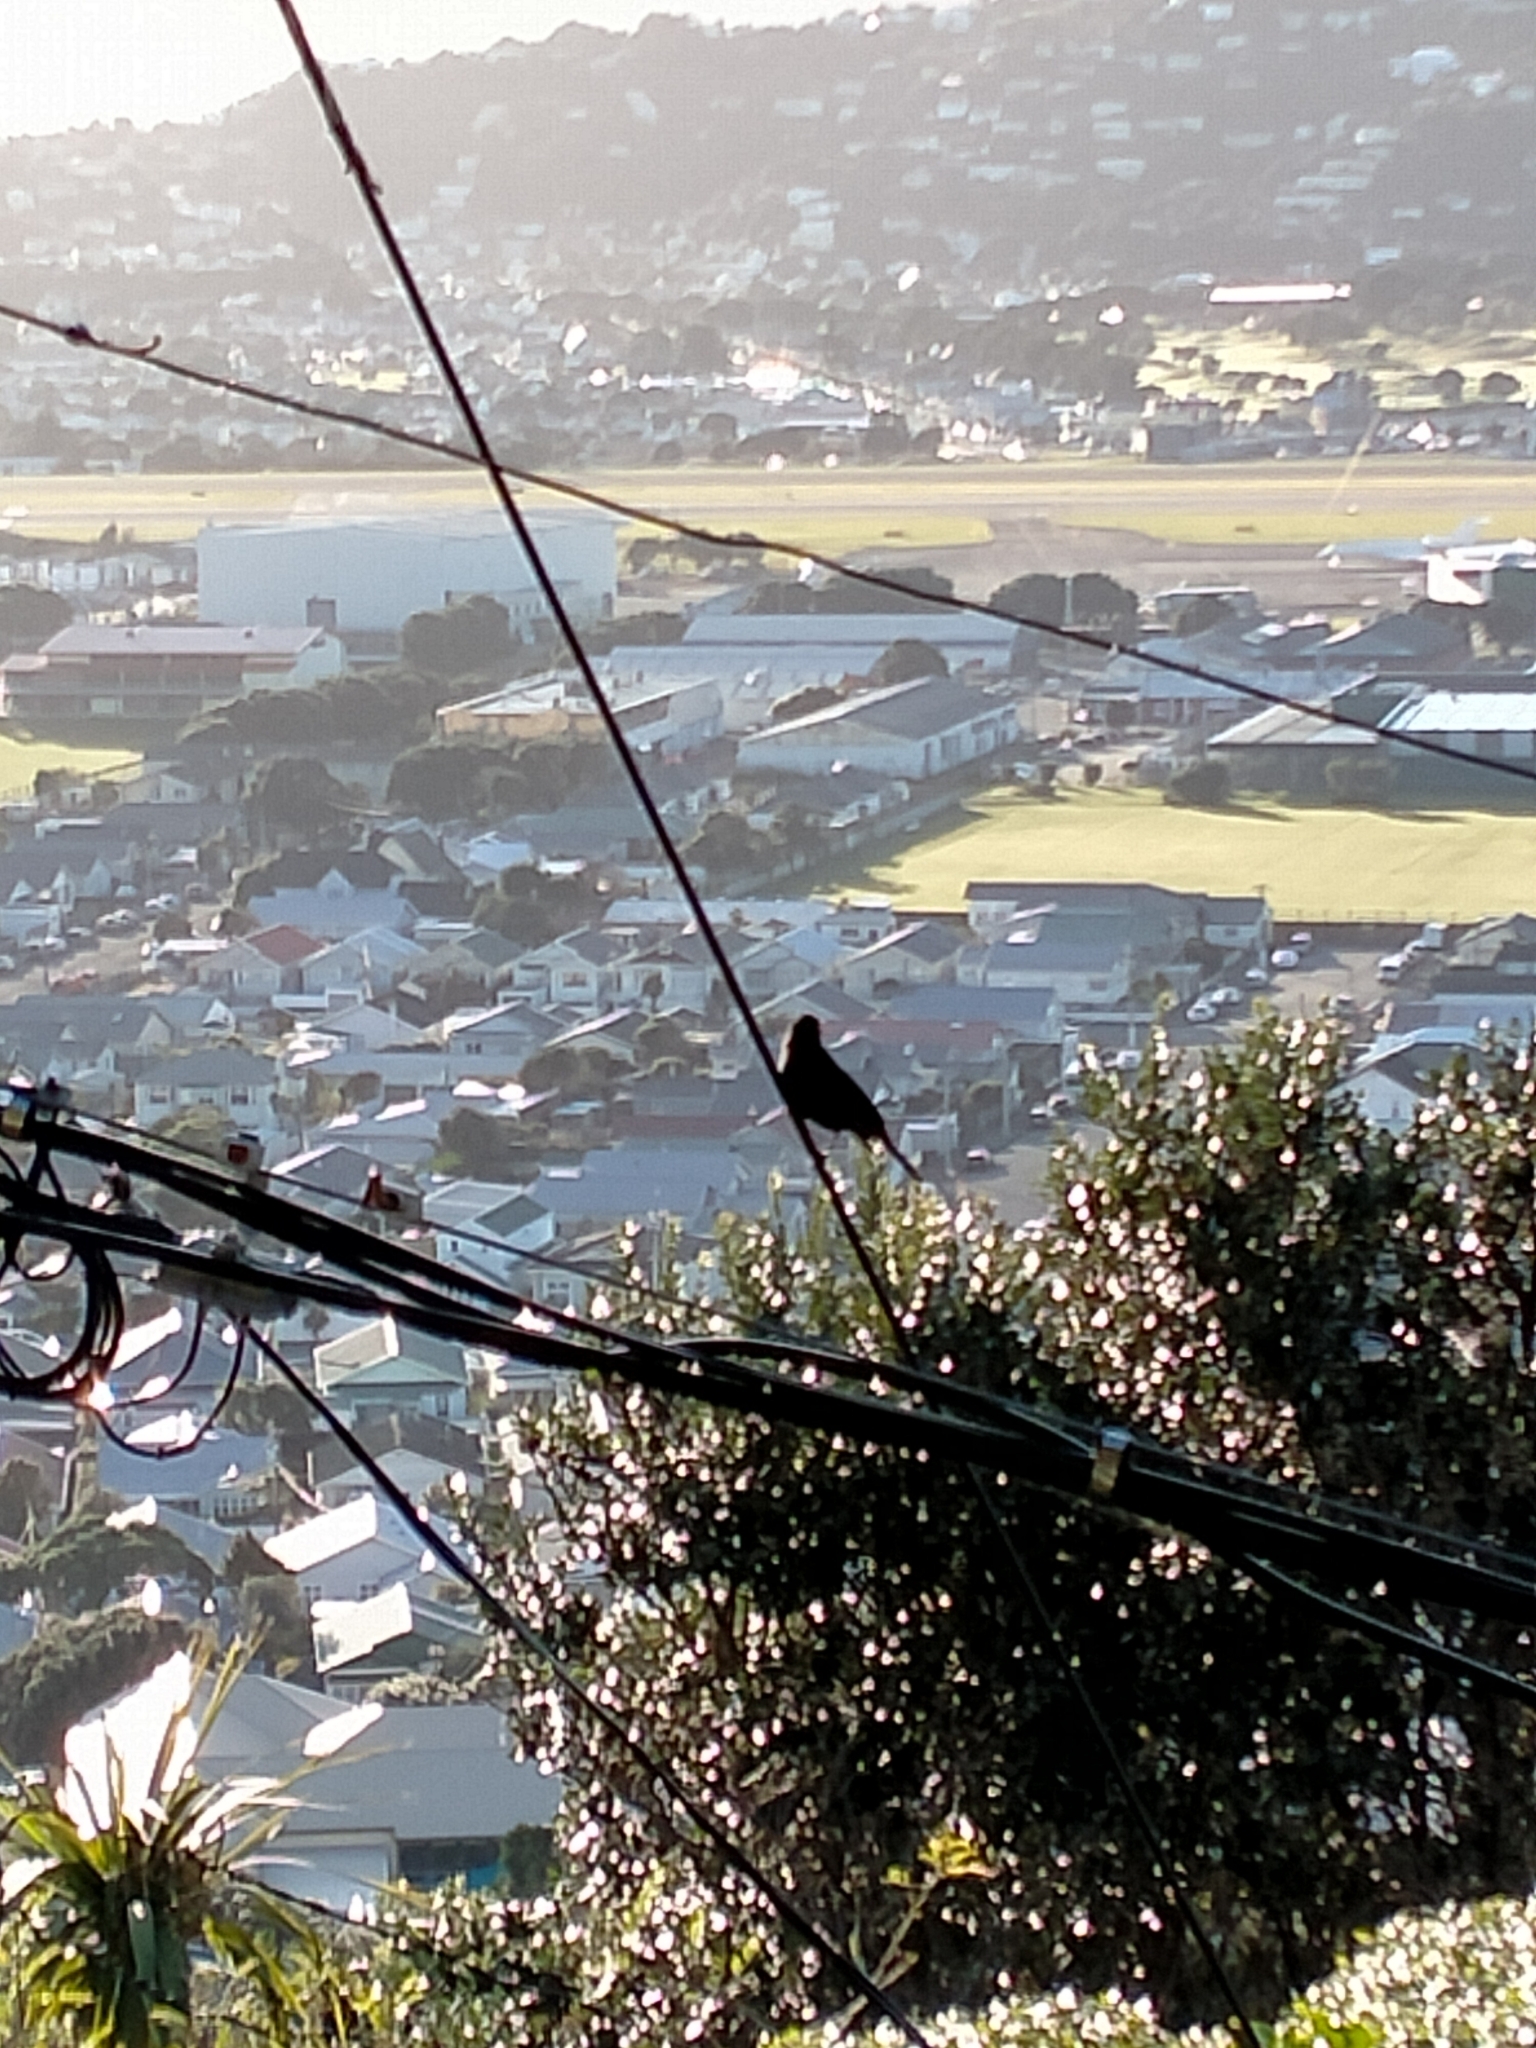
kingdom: Animalia
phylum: Chordata
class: Aves
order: Passeriformes
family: Turdidae
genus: Turdus
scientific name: Turdus merula
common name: Common blackbird
